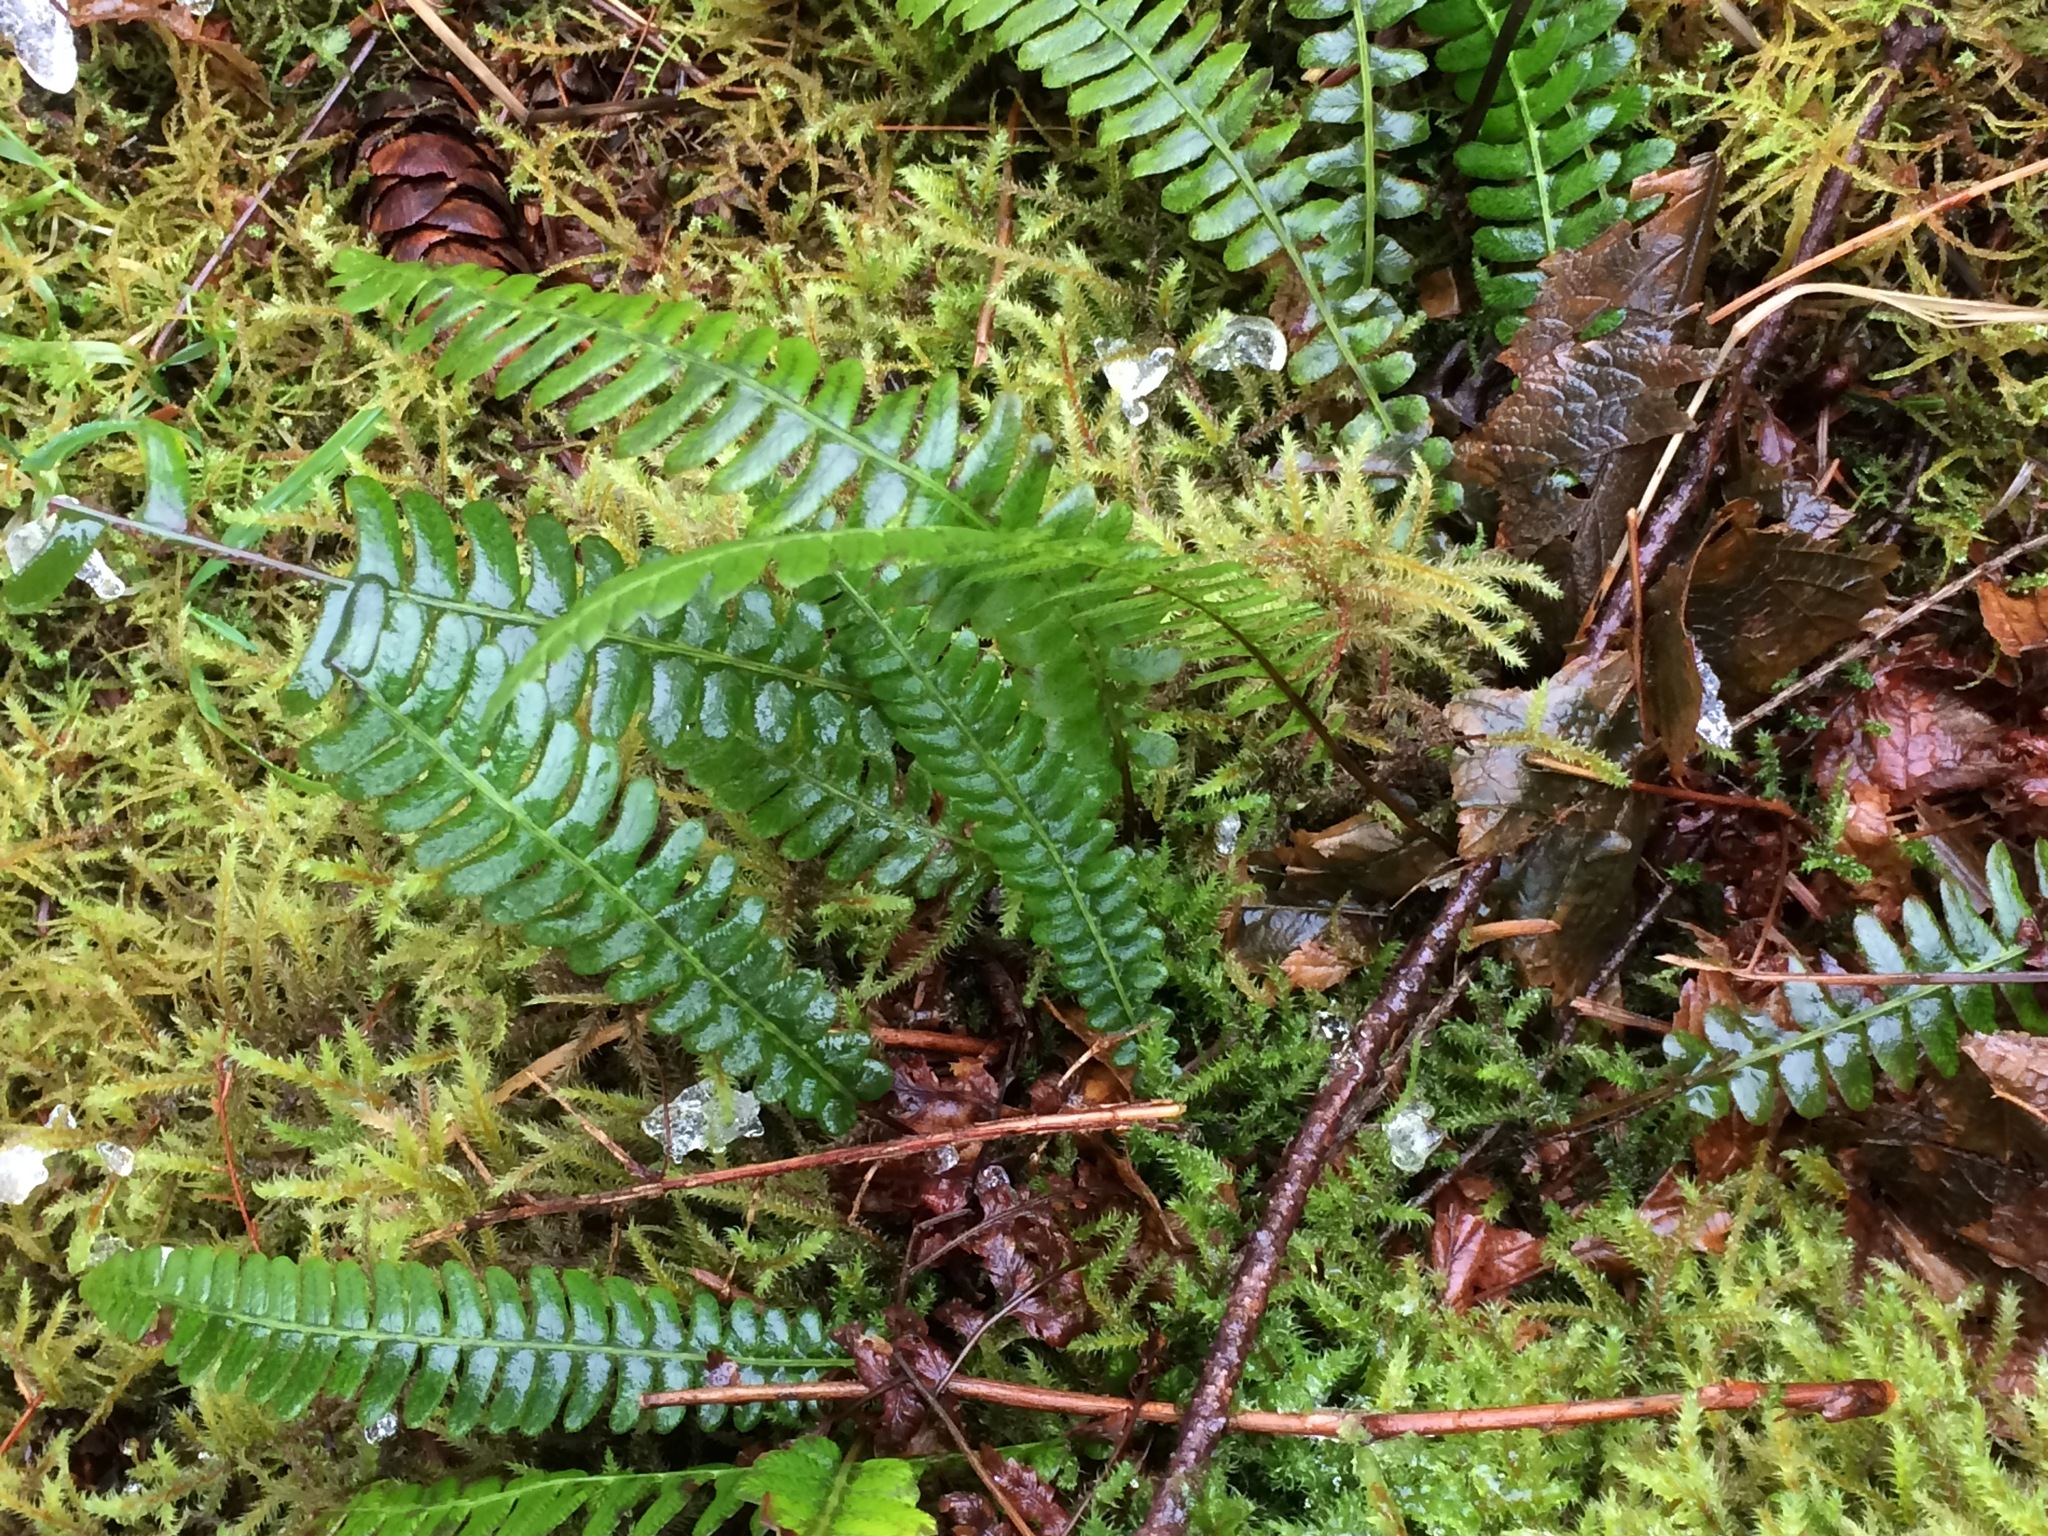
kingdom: Plantae
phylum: Tracheophyta
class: Polypodiopsida
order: Polypodiales
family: Blechnaceae
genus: Struthiopteris
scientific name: Struthiopteris spicant
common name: Deer fern
